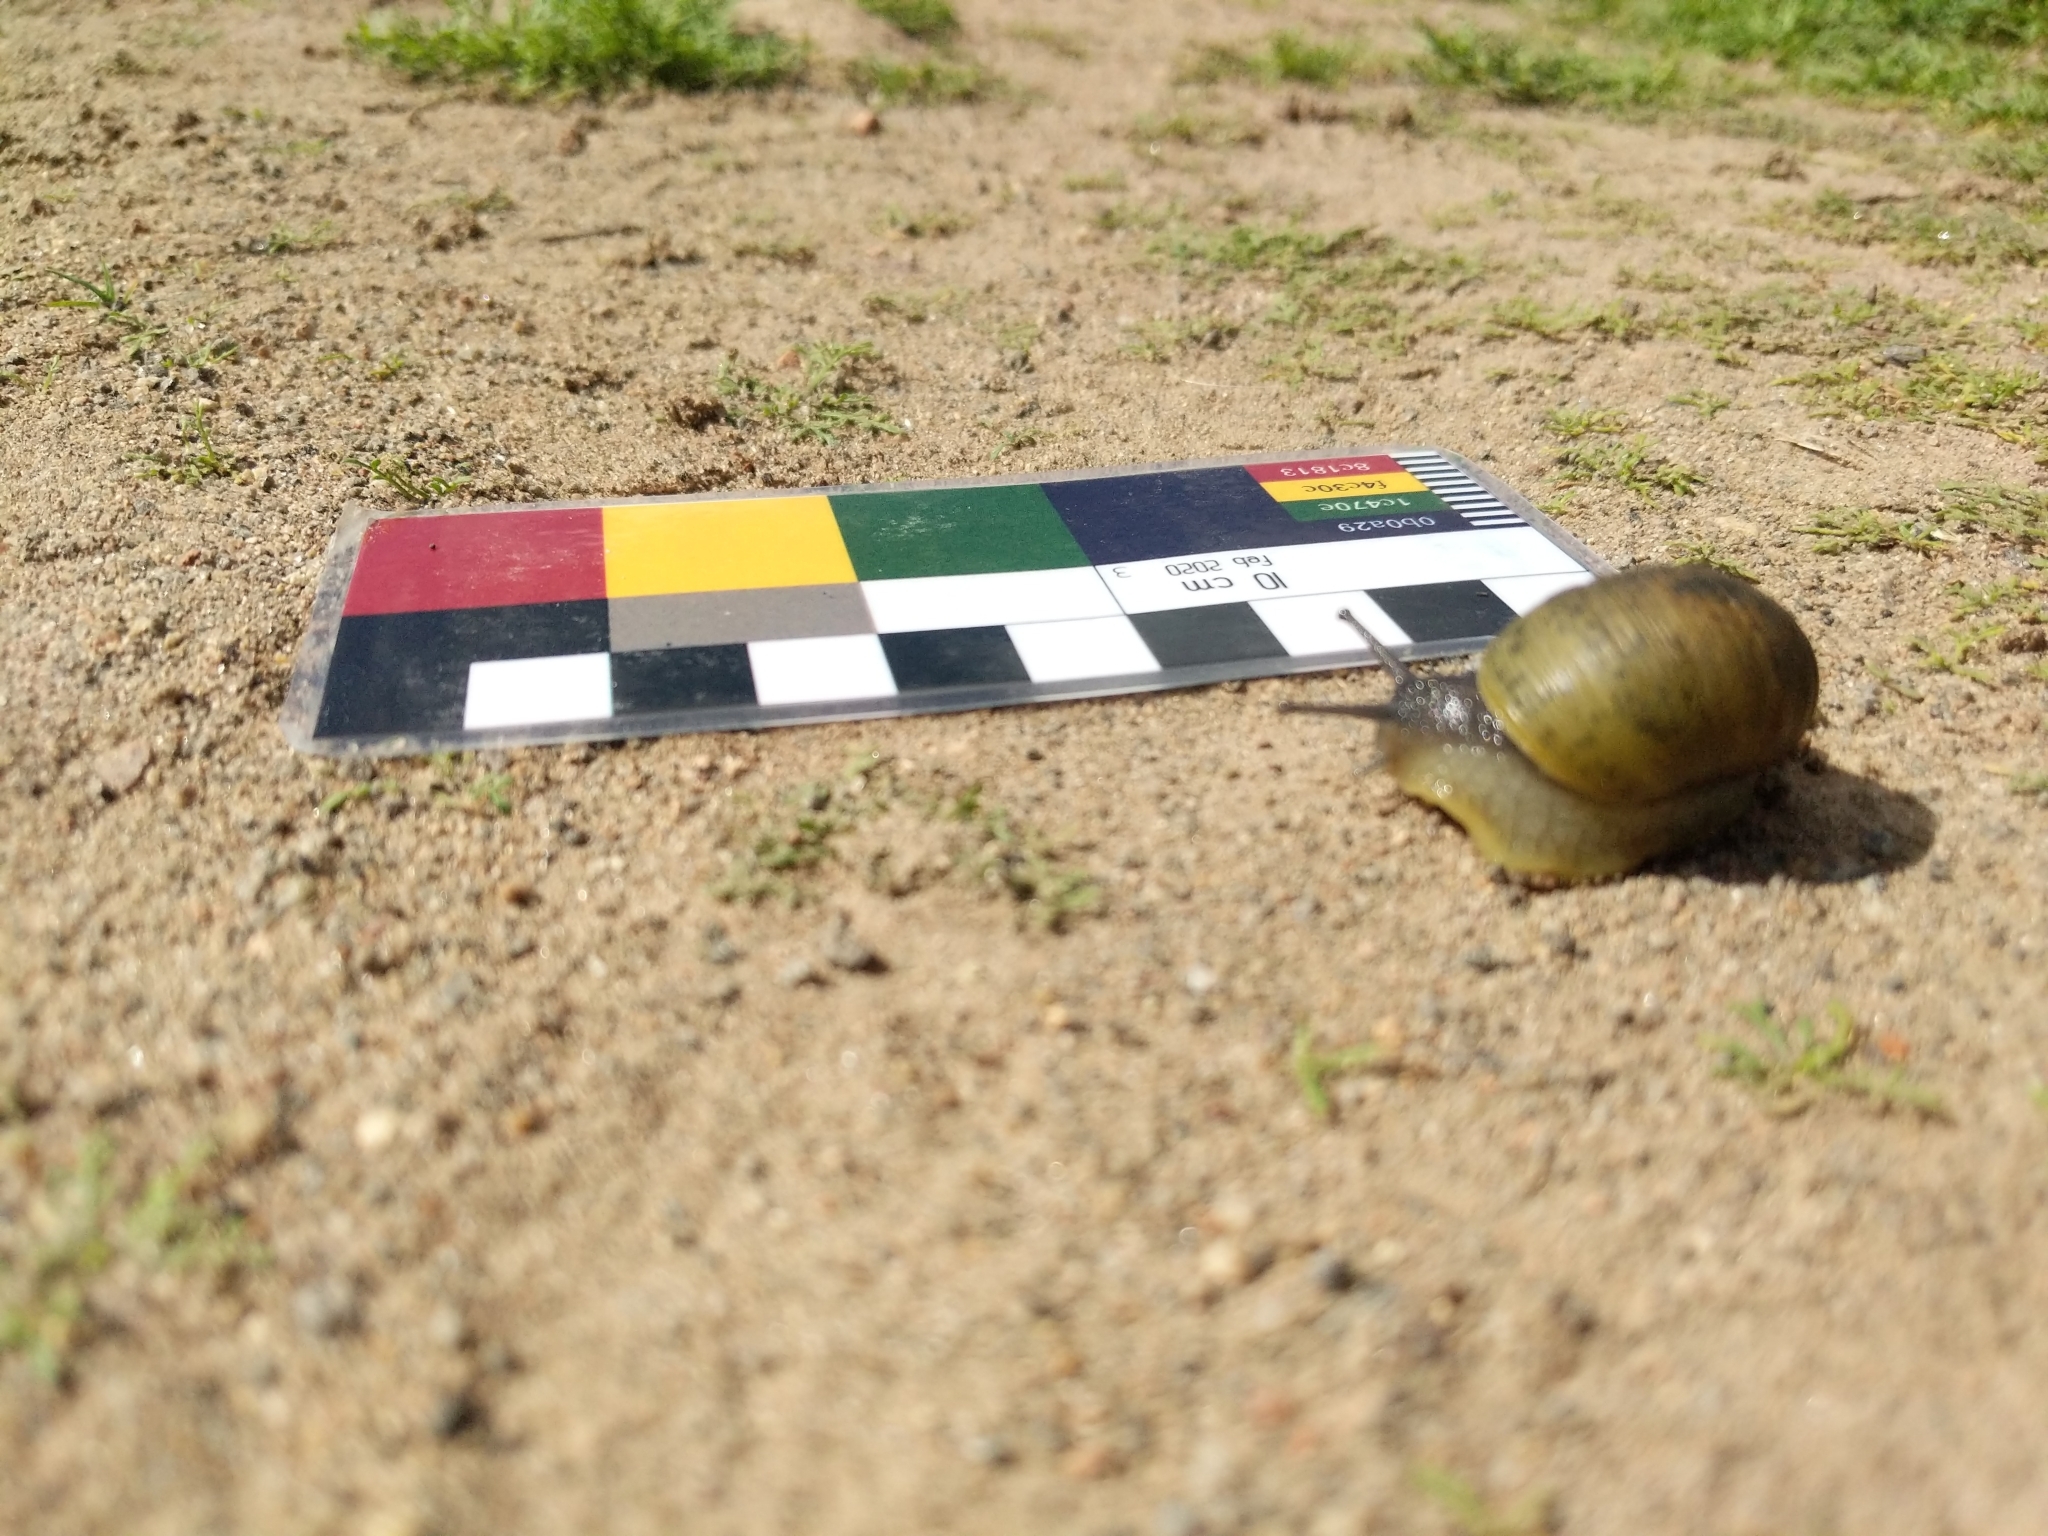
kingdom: Animalia
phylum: Mollusca
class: Gastropoda
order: Stylommatophora
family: Helicidae
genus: Cantareus
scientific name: Cantareus apertus
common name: Green gardensnail
